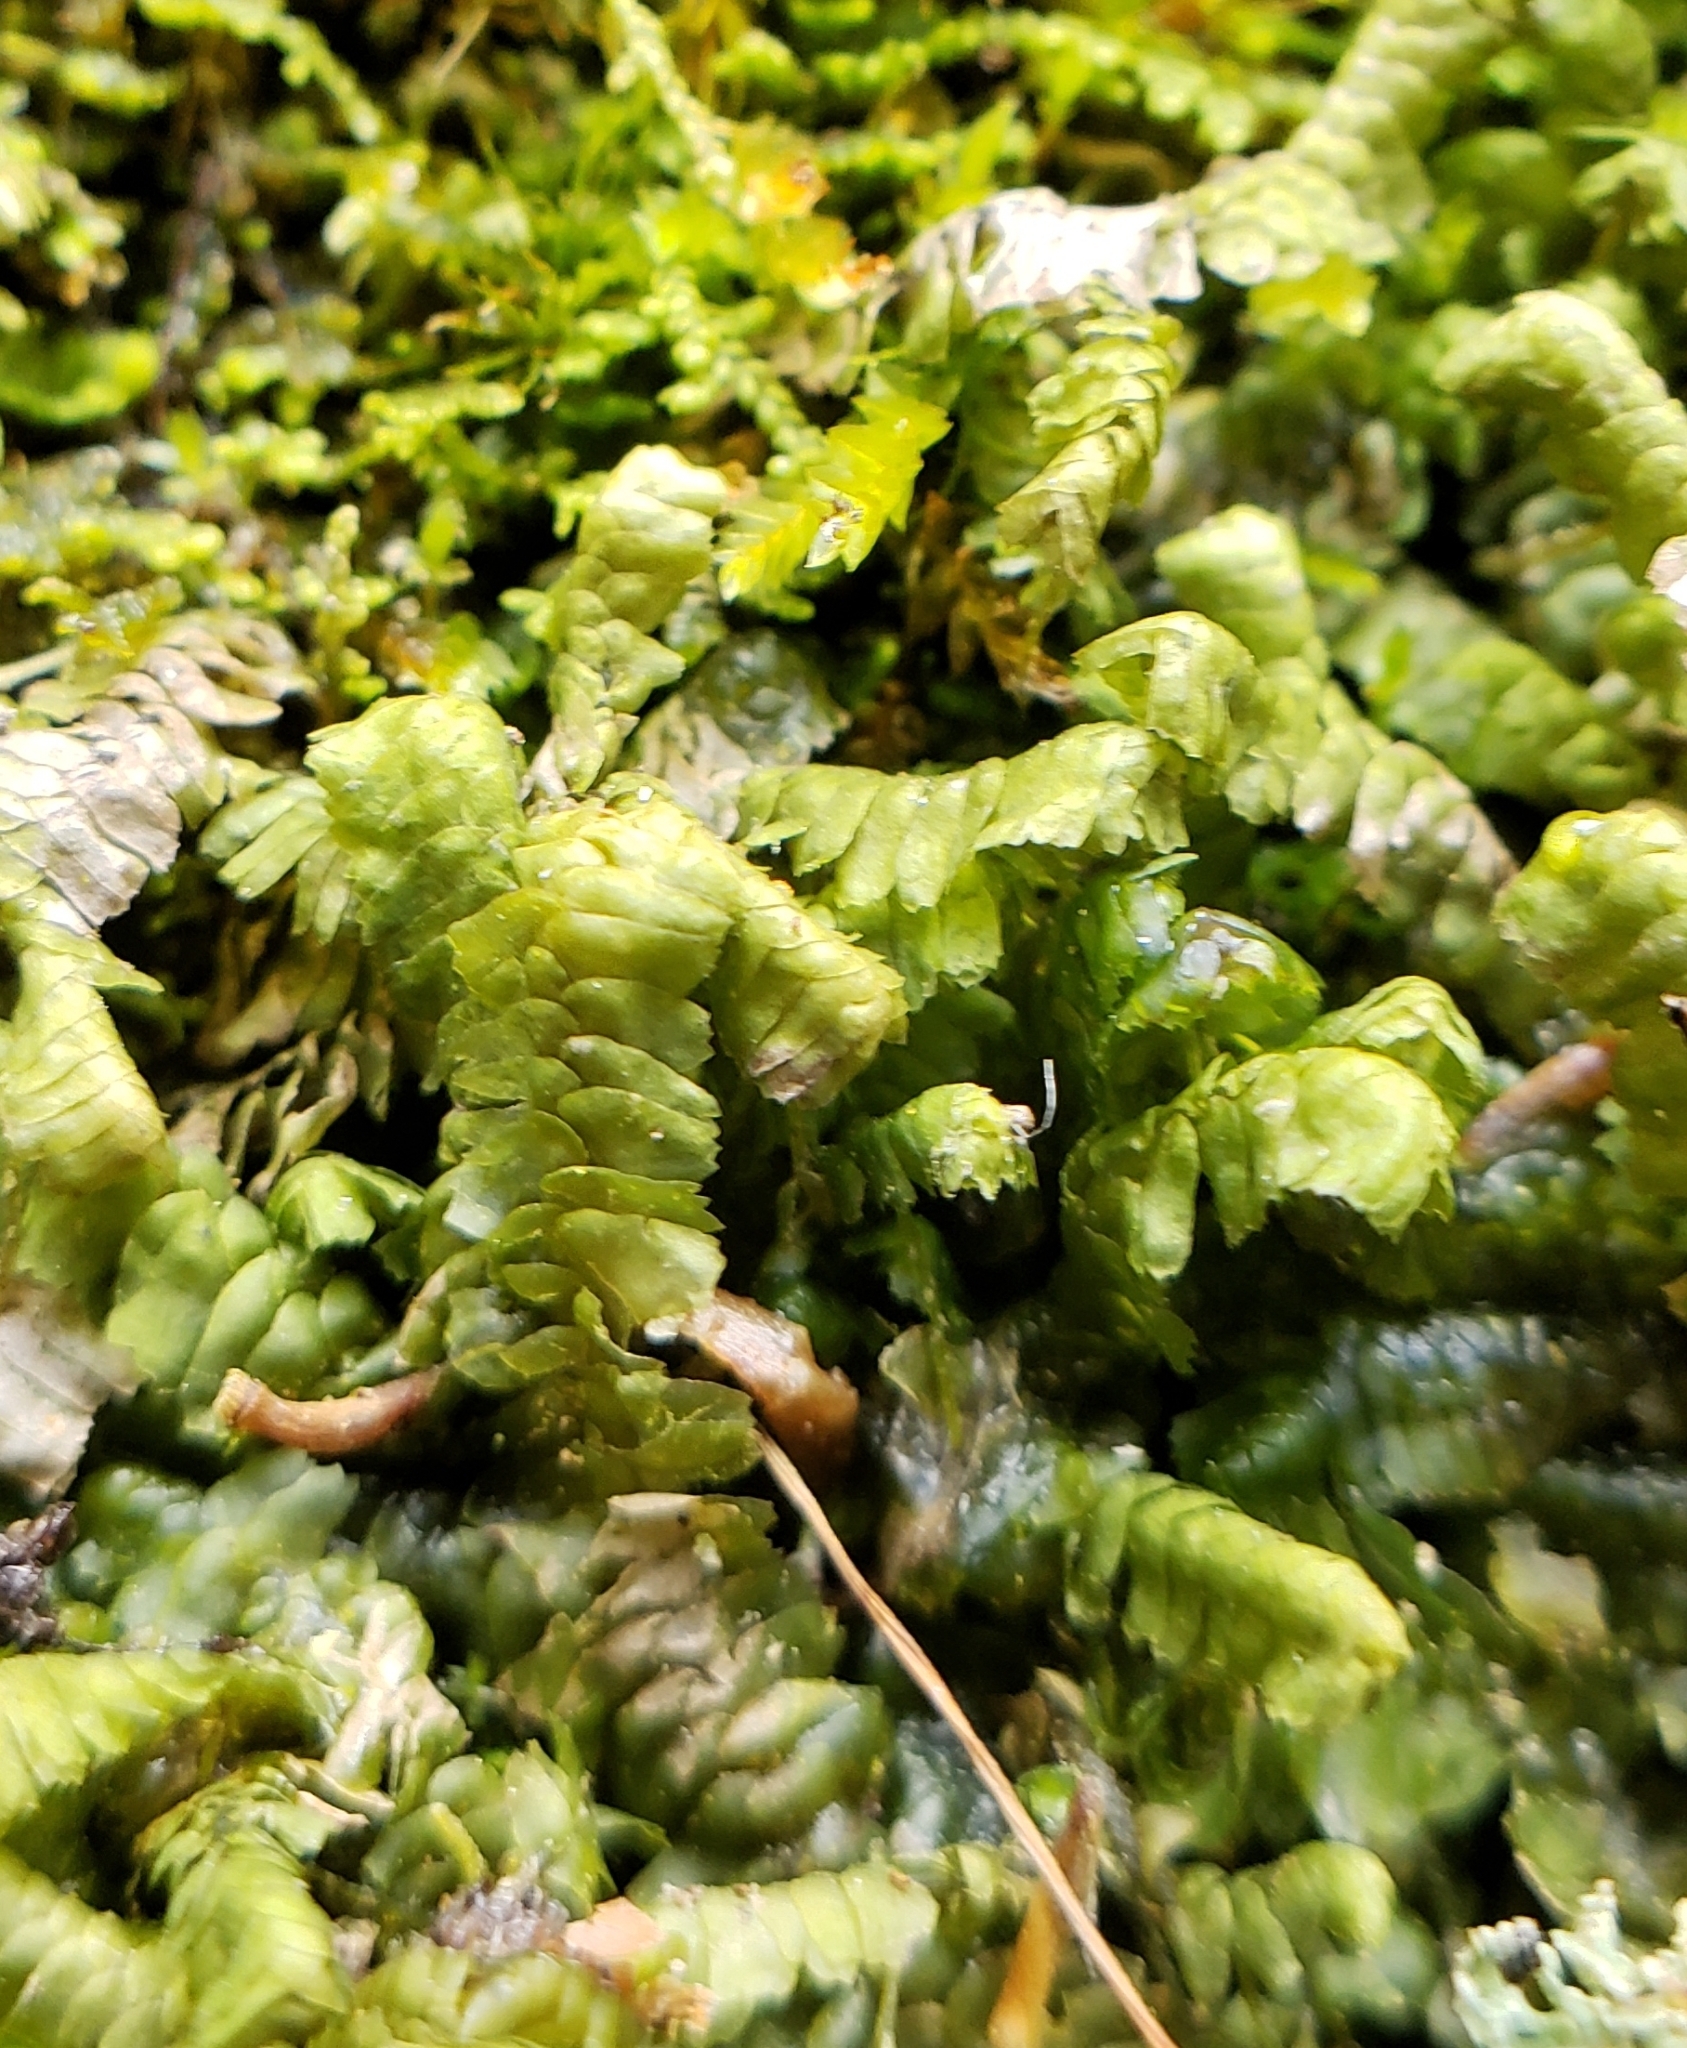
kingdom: Plantae
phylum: Marchantiophyta
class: Jungermanniopsida
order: Jungermanniales
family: Lepidoziaceae
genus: Bazzania
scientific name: Bazzania trilobata
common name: Three-lobed whipwort
